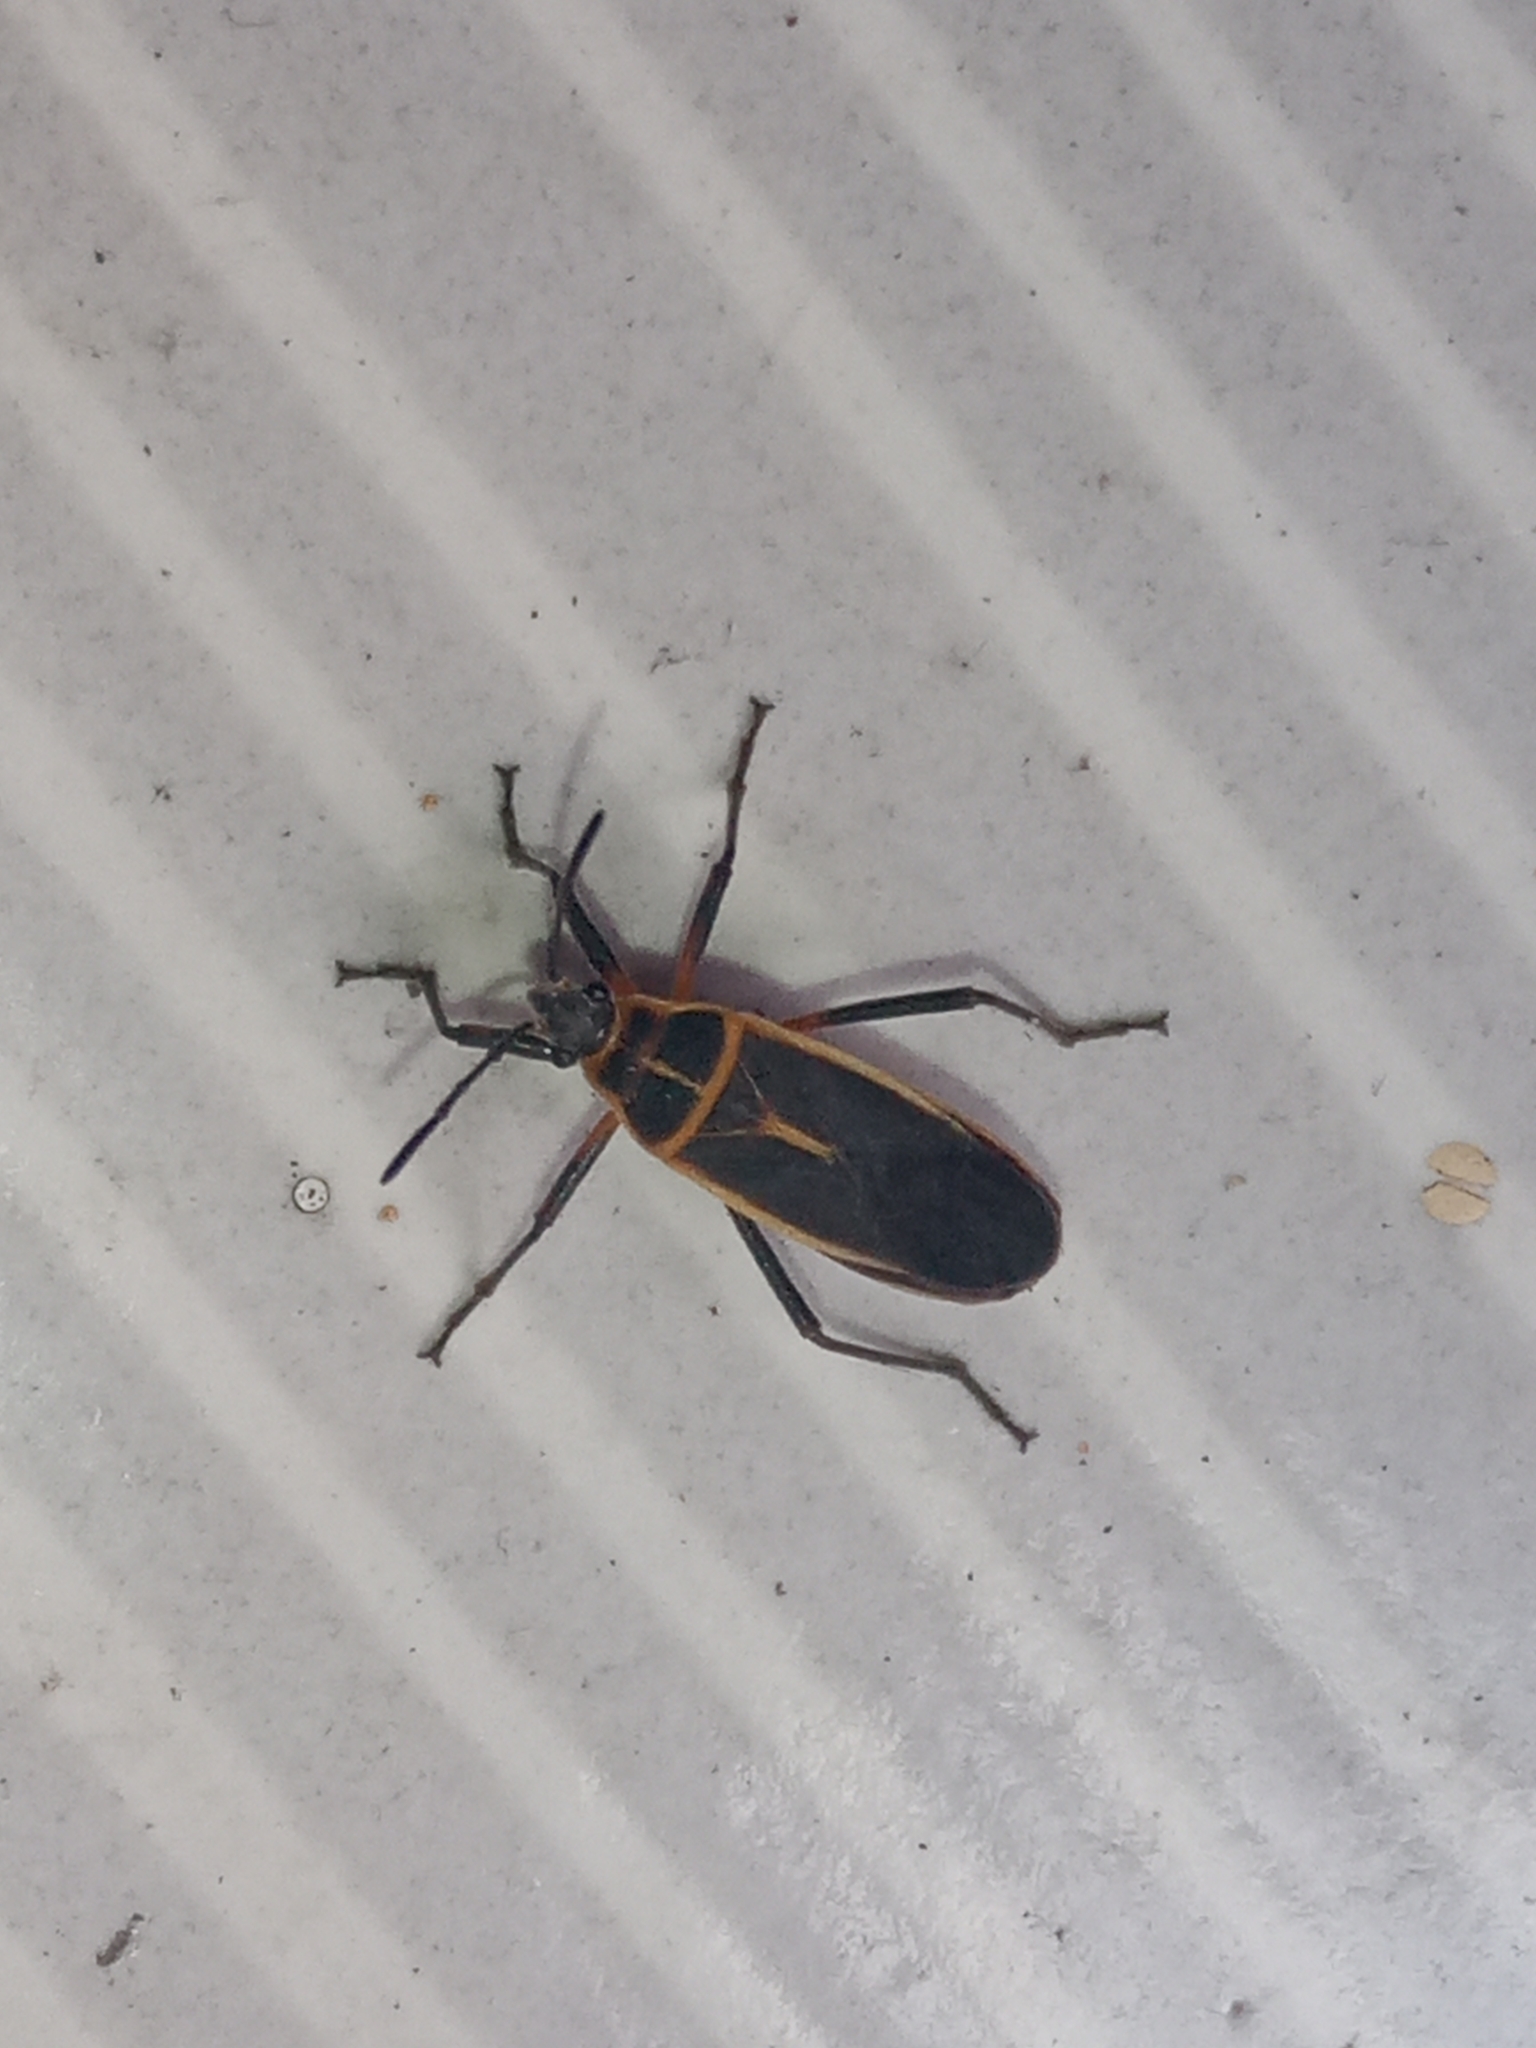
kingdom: Animalia
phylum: Arthropoda
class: Insecta
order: Hemiptera
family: Largidae
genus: Stenomacra
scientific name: Stenomacra marginella
